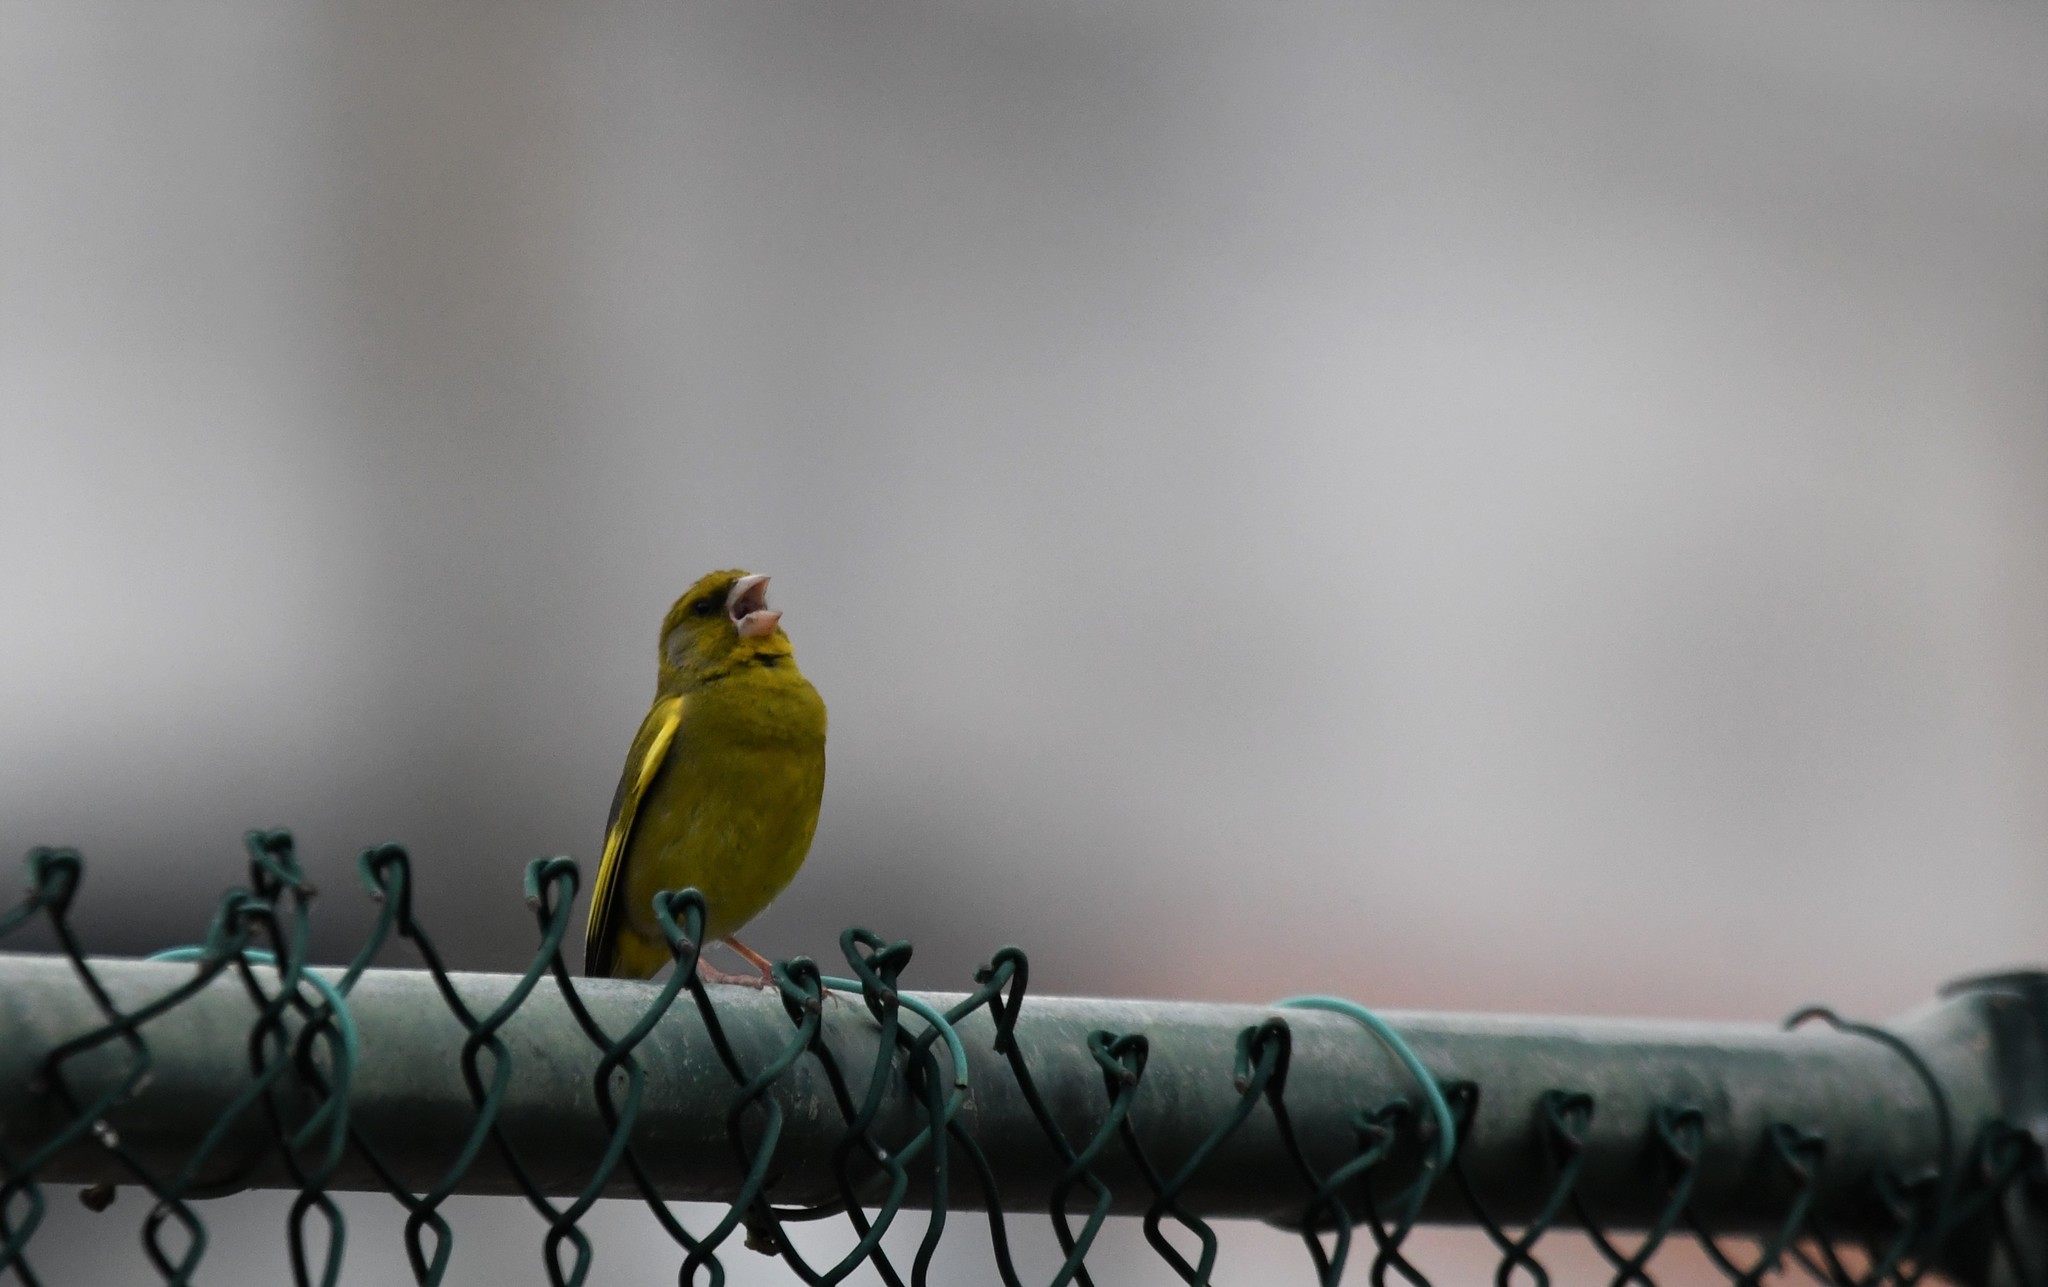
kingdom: Plantae
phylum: Tracheophyta
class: Liliopsida
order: Poales
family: Poaceae
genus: Chloris
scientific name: Chloris chloris
